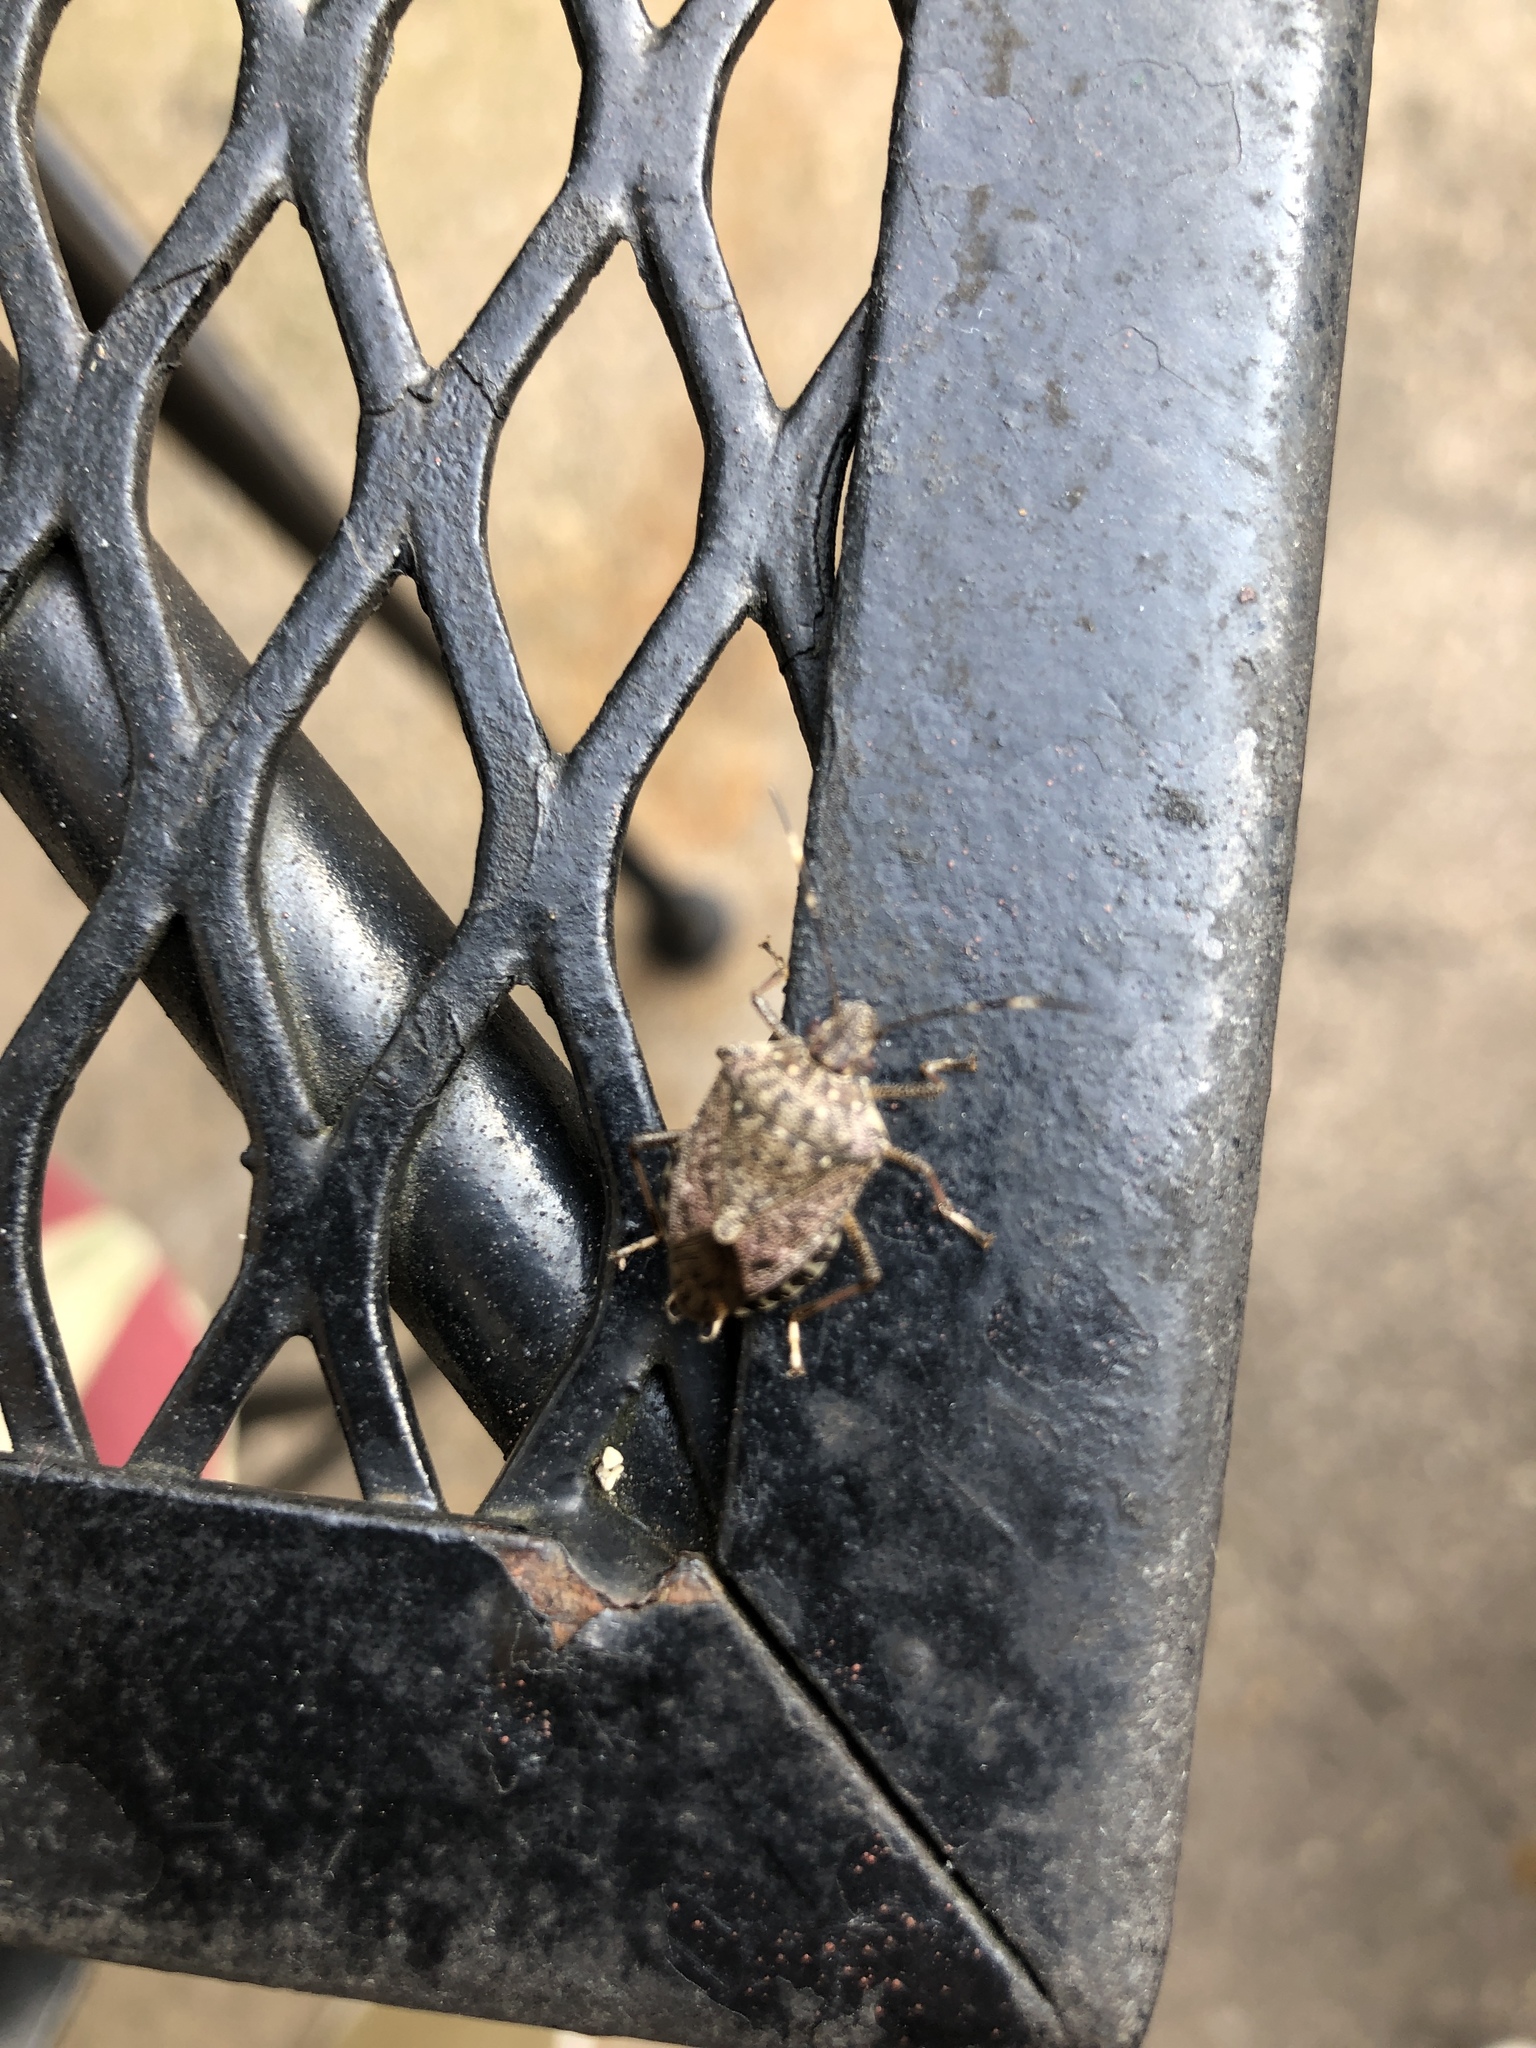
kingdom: Animalia
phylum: Arthropoda
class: Insecta
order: Hemiptera
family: Pentatomidae
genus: Halyomorpha
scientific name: Halyomorpha halys
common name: Brown marmorated stink bug
